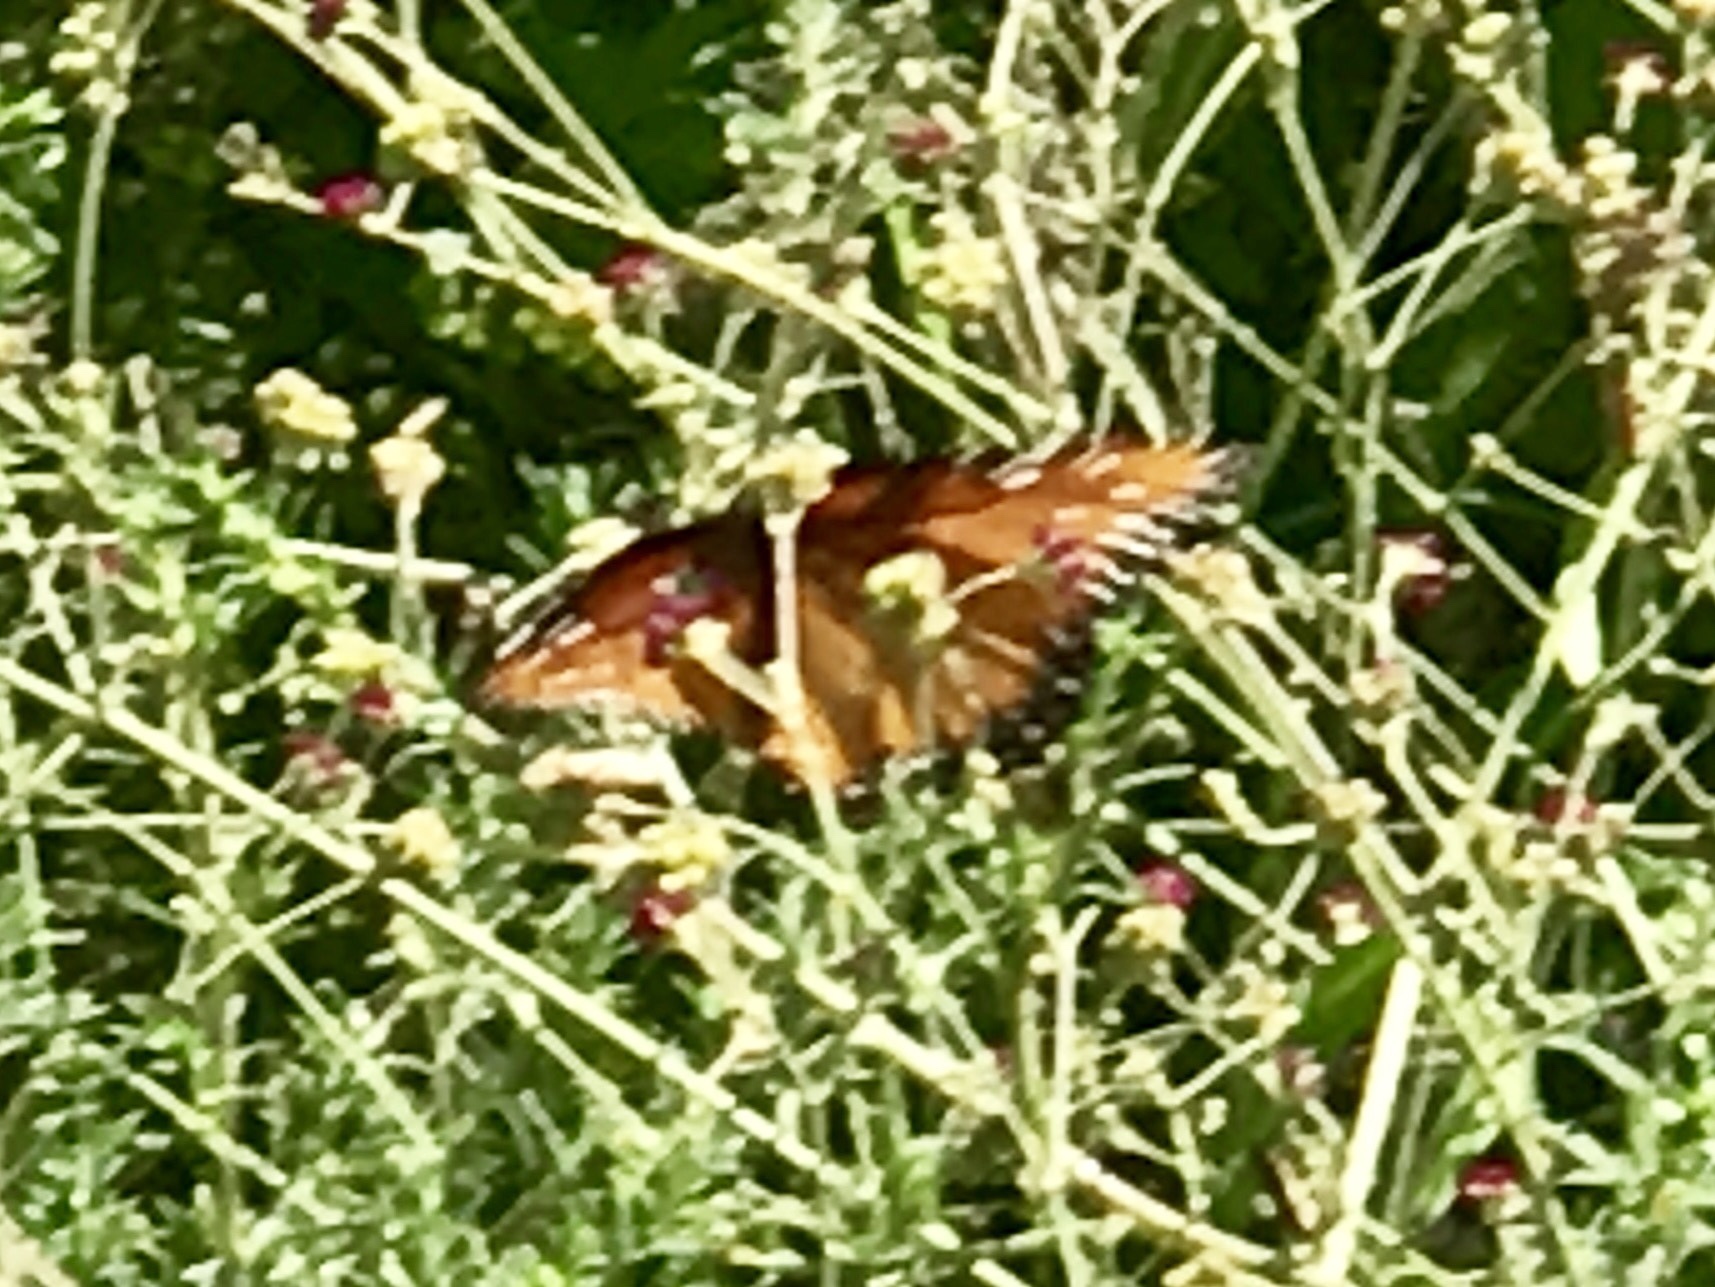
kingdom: Animalia
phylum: Arthropoda
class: Insecta
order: Lepidoptera
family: Nymphalidae
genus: Danaus
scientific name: Danaus gilippus
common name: Queen
